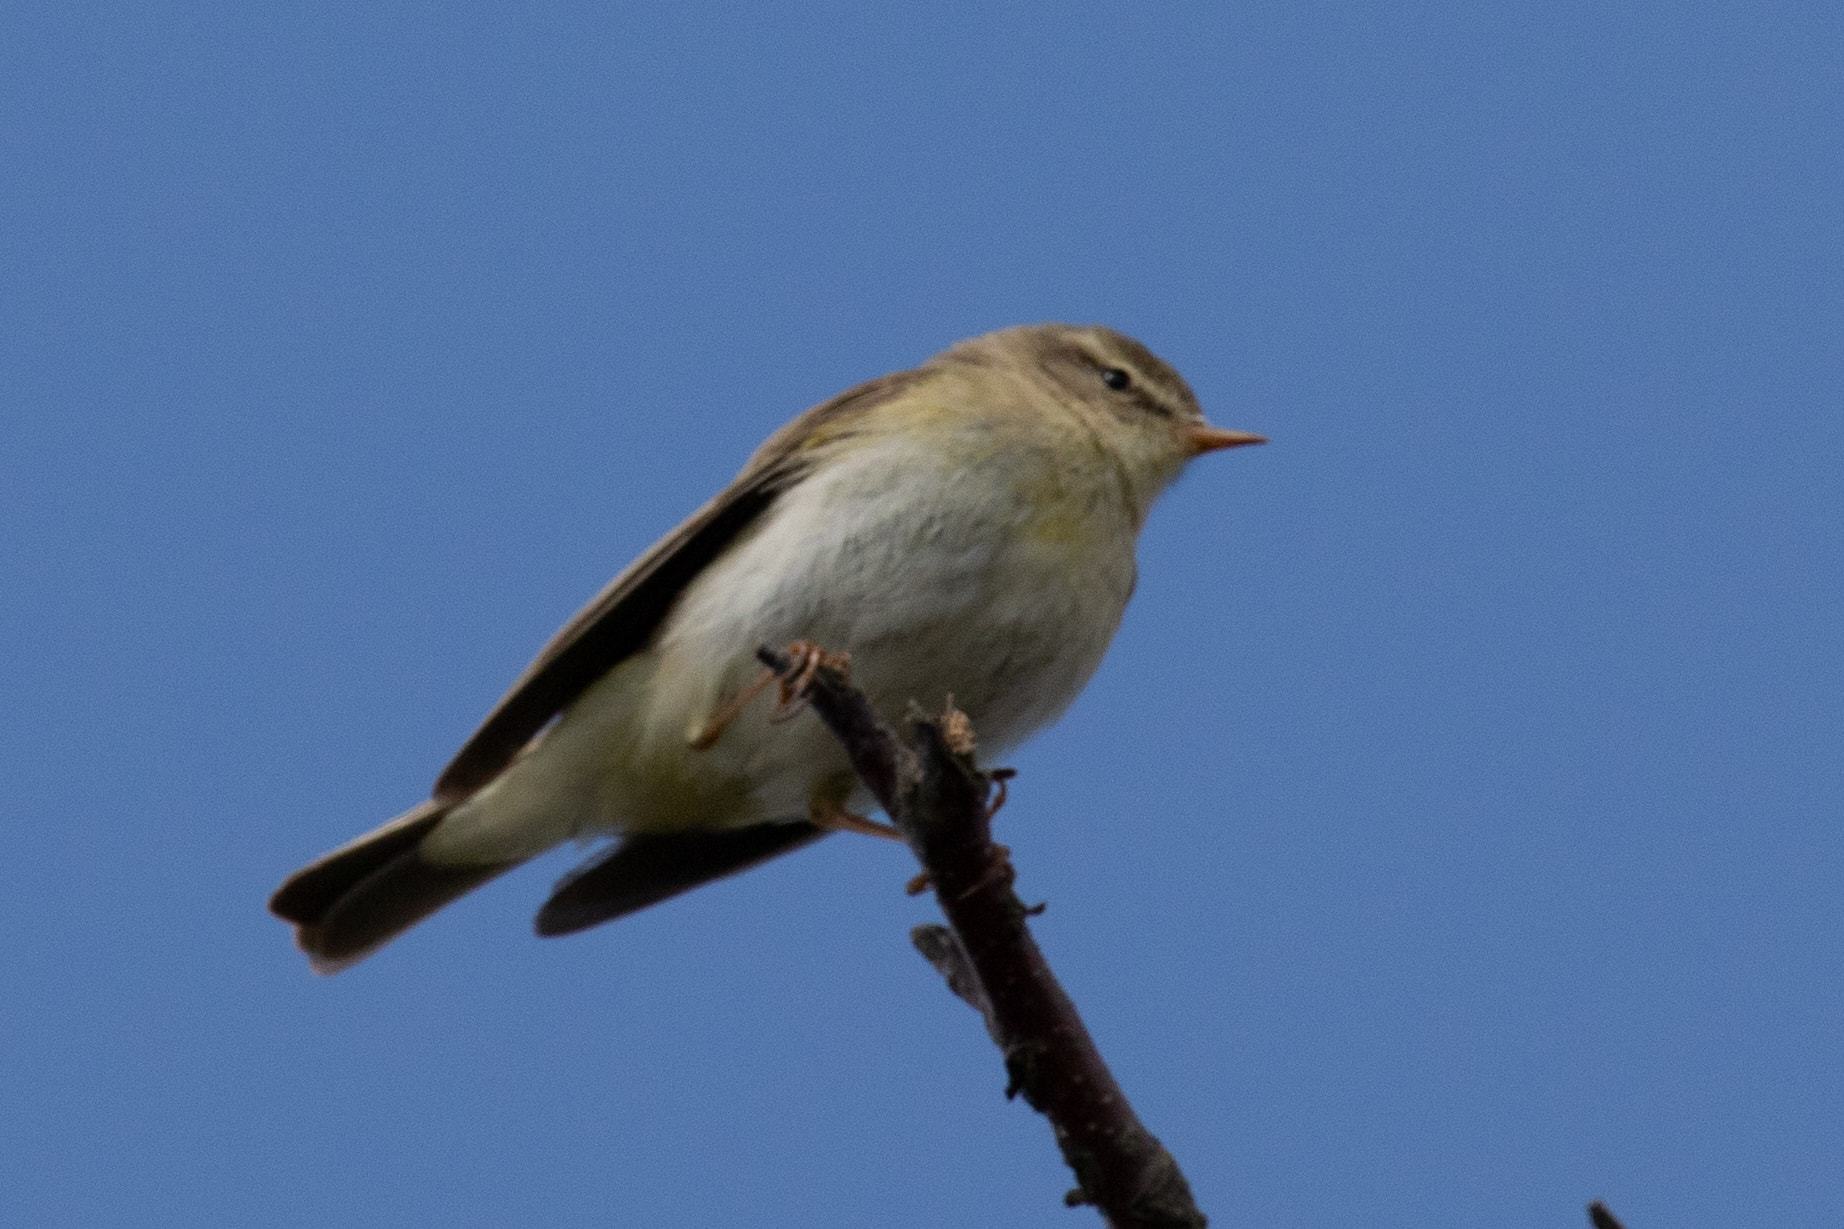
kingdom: Animalia
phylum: Chordata
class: Aves
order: Passeriformes
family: Phylloscopidae
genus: Phylloscopus
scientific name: Phylloscopus trochilus
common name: Willow warbler
